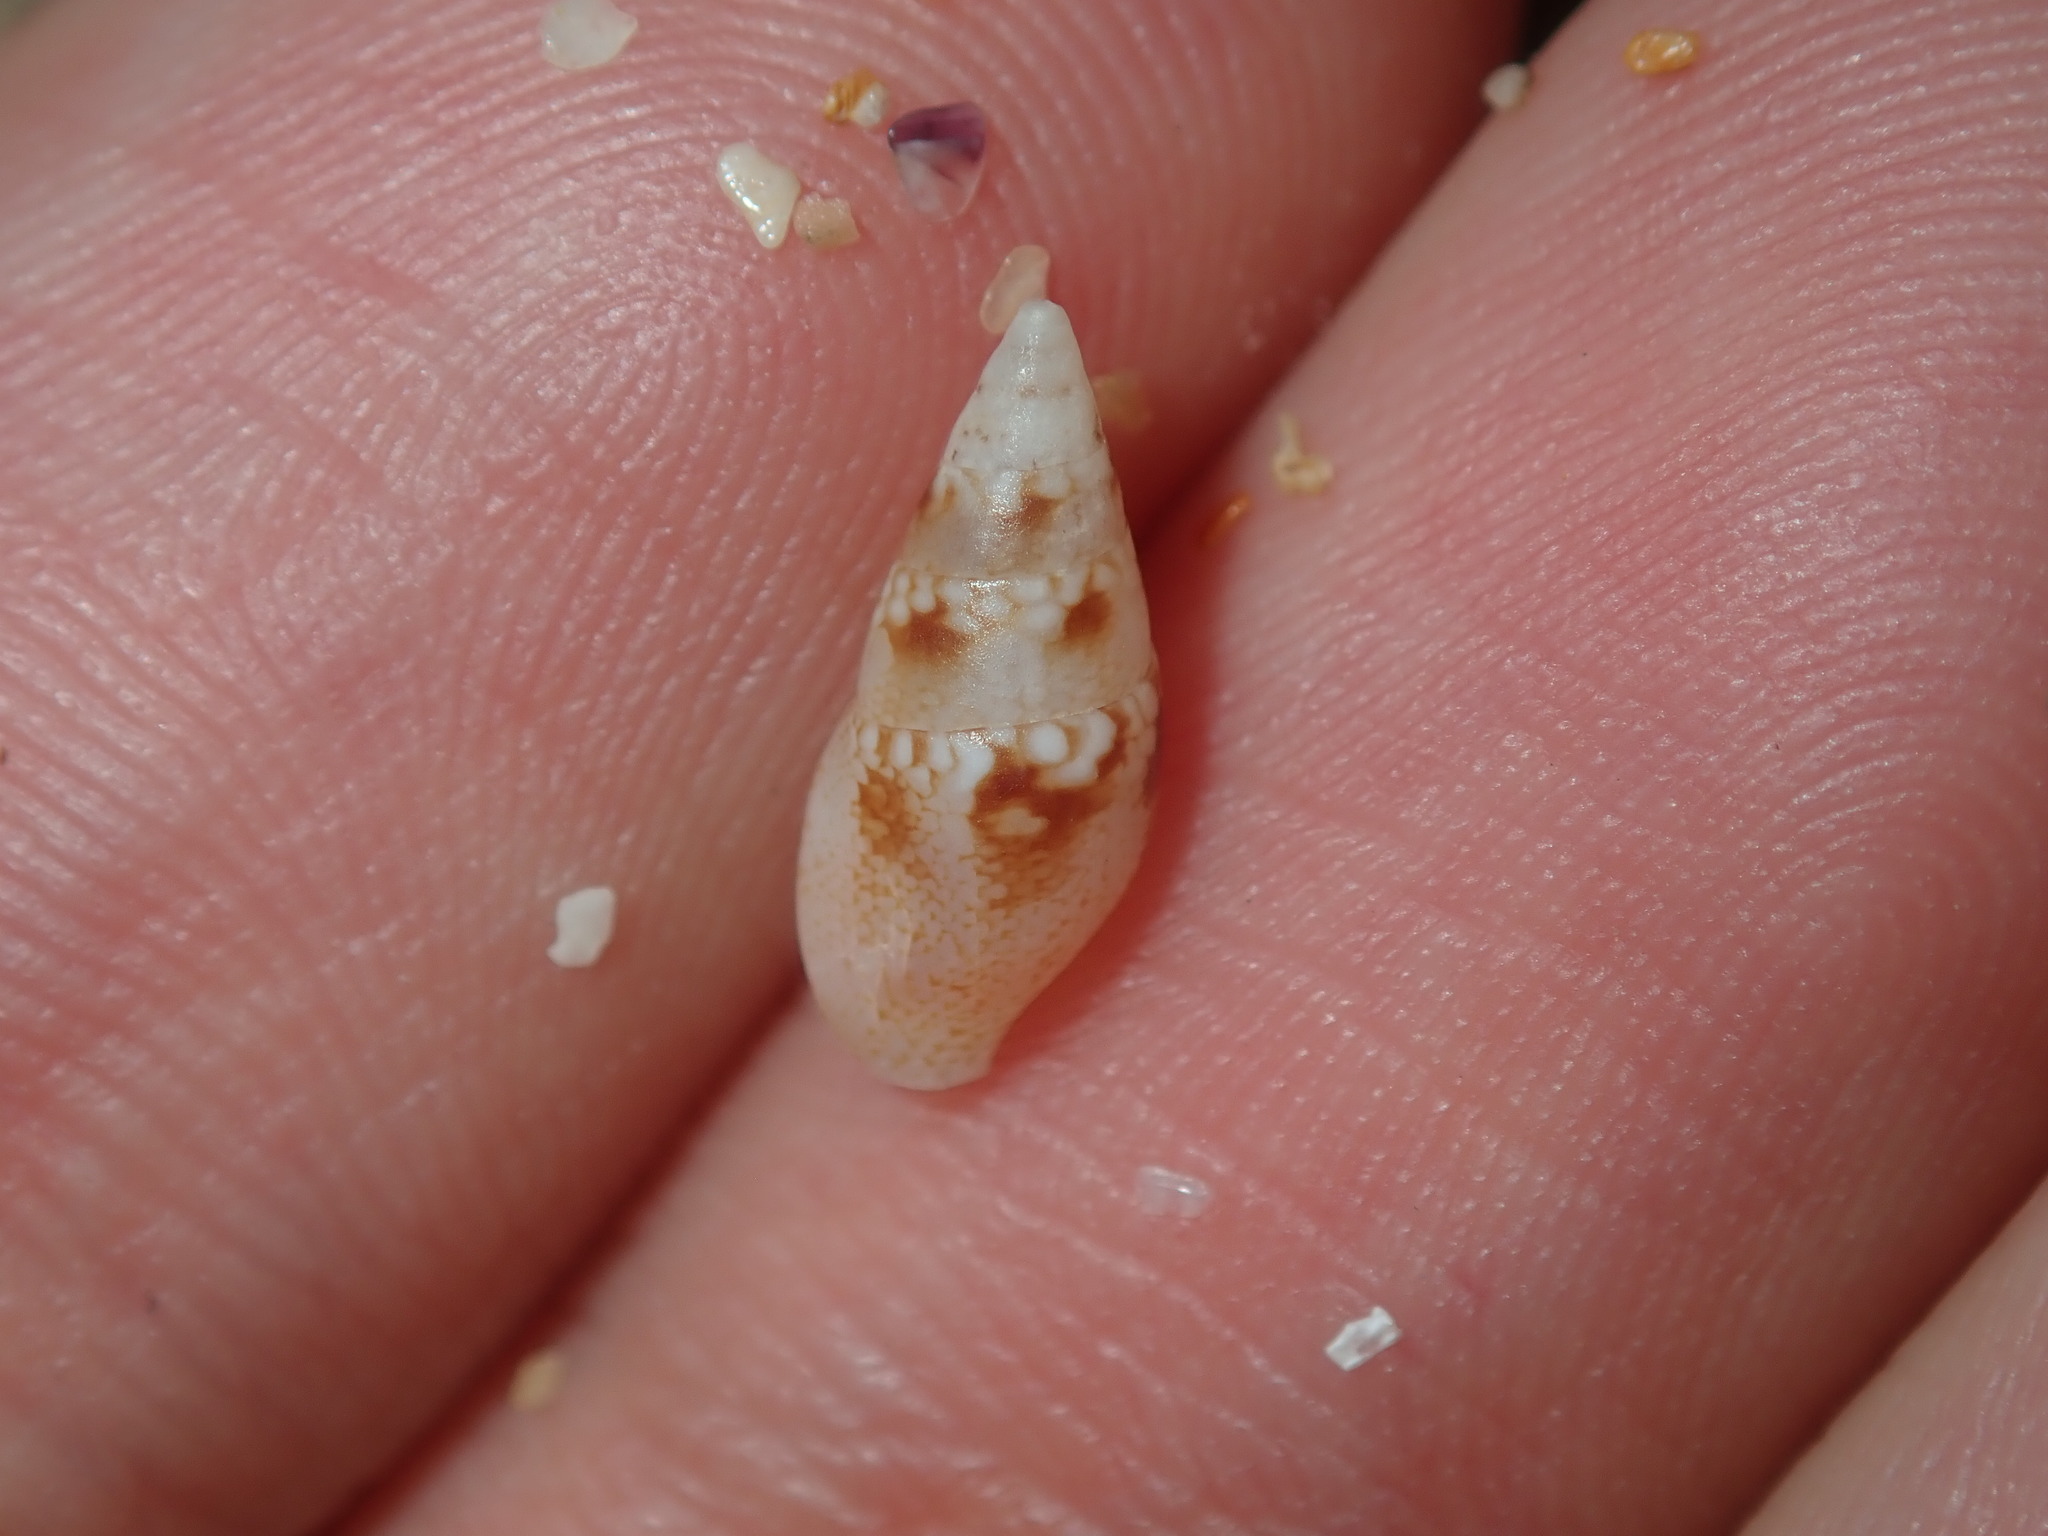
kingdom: Animalia
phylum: Mollusca
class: Gastropoda
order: Neogastropoda
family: Columbellidae
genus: Mitrella
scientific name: Mitrella tayloriana
